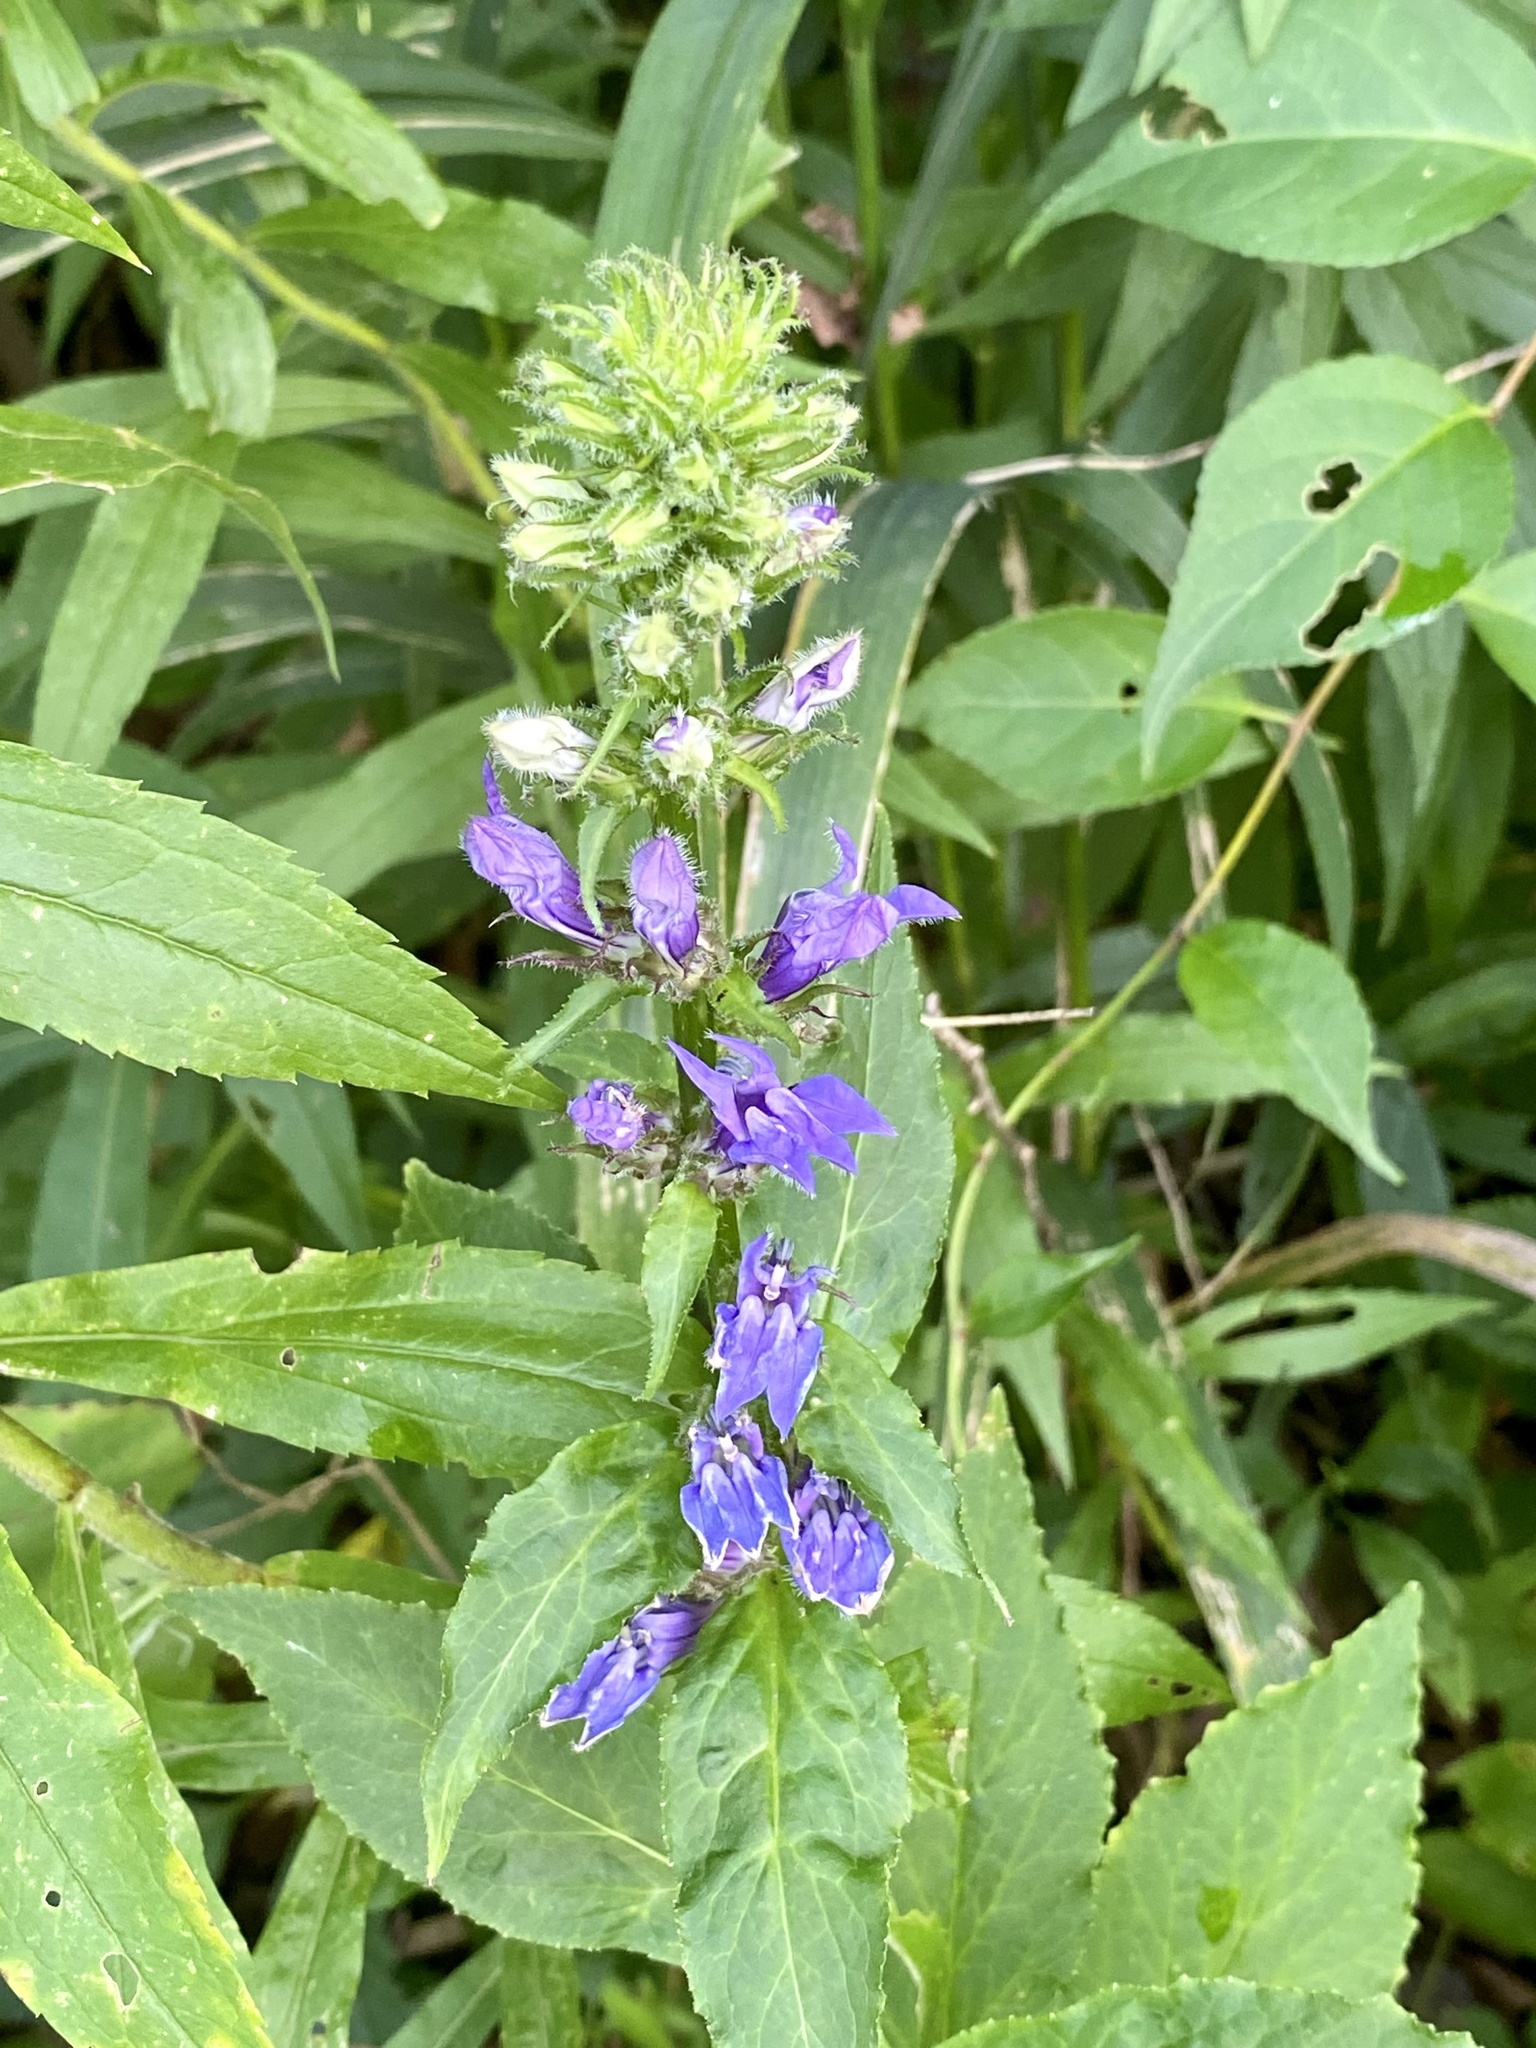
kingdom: Plantae
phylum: Tracheophyta
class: Magnoliopsida
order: Asterales
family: Campanulaceae
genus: Lobelia
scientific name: Lobelia siphilitica
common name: Great lobelia
